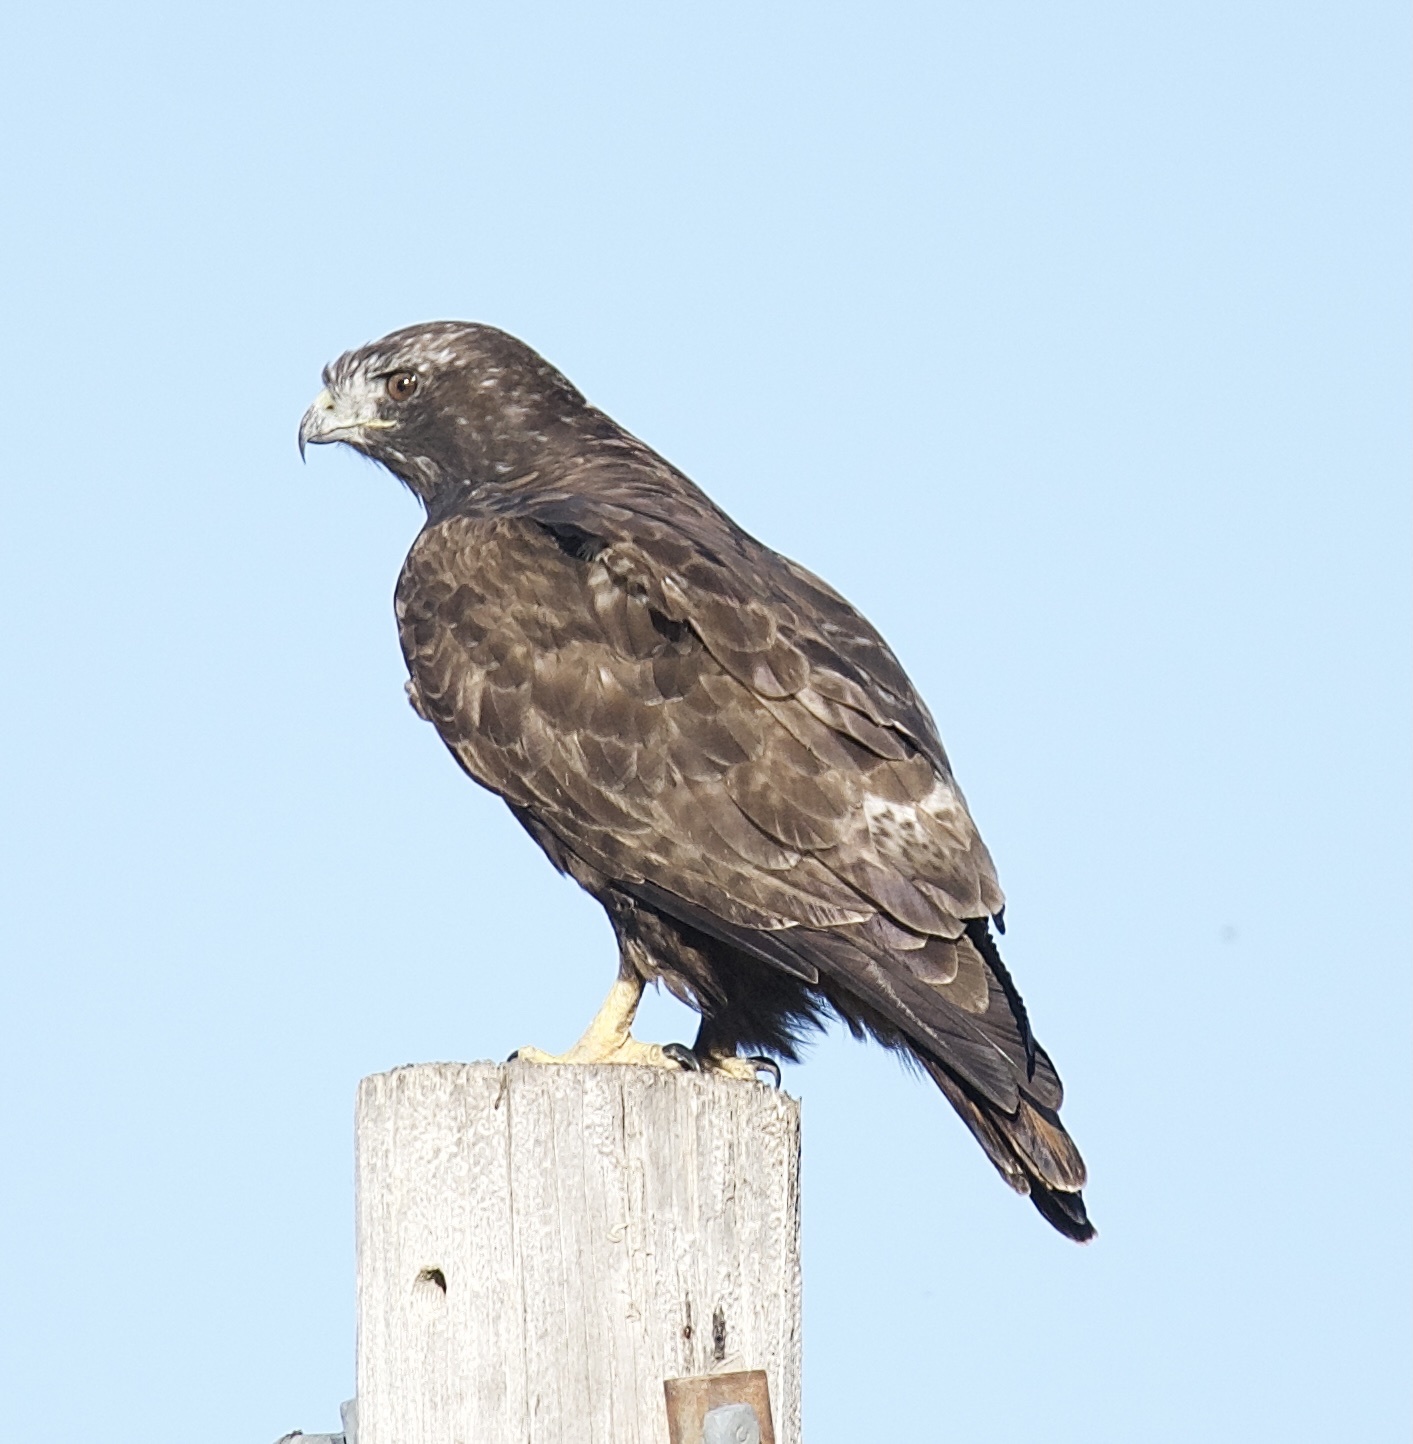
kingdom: Animalia
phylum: Chordata
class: Aves
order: Accipitriformes
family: Accipitridae
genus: Buteo
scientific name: Buteo jamaicensis
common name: Red-tailed hawk
